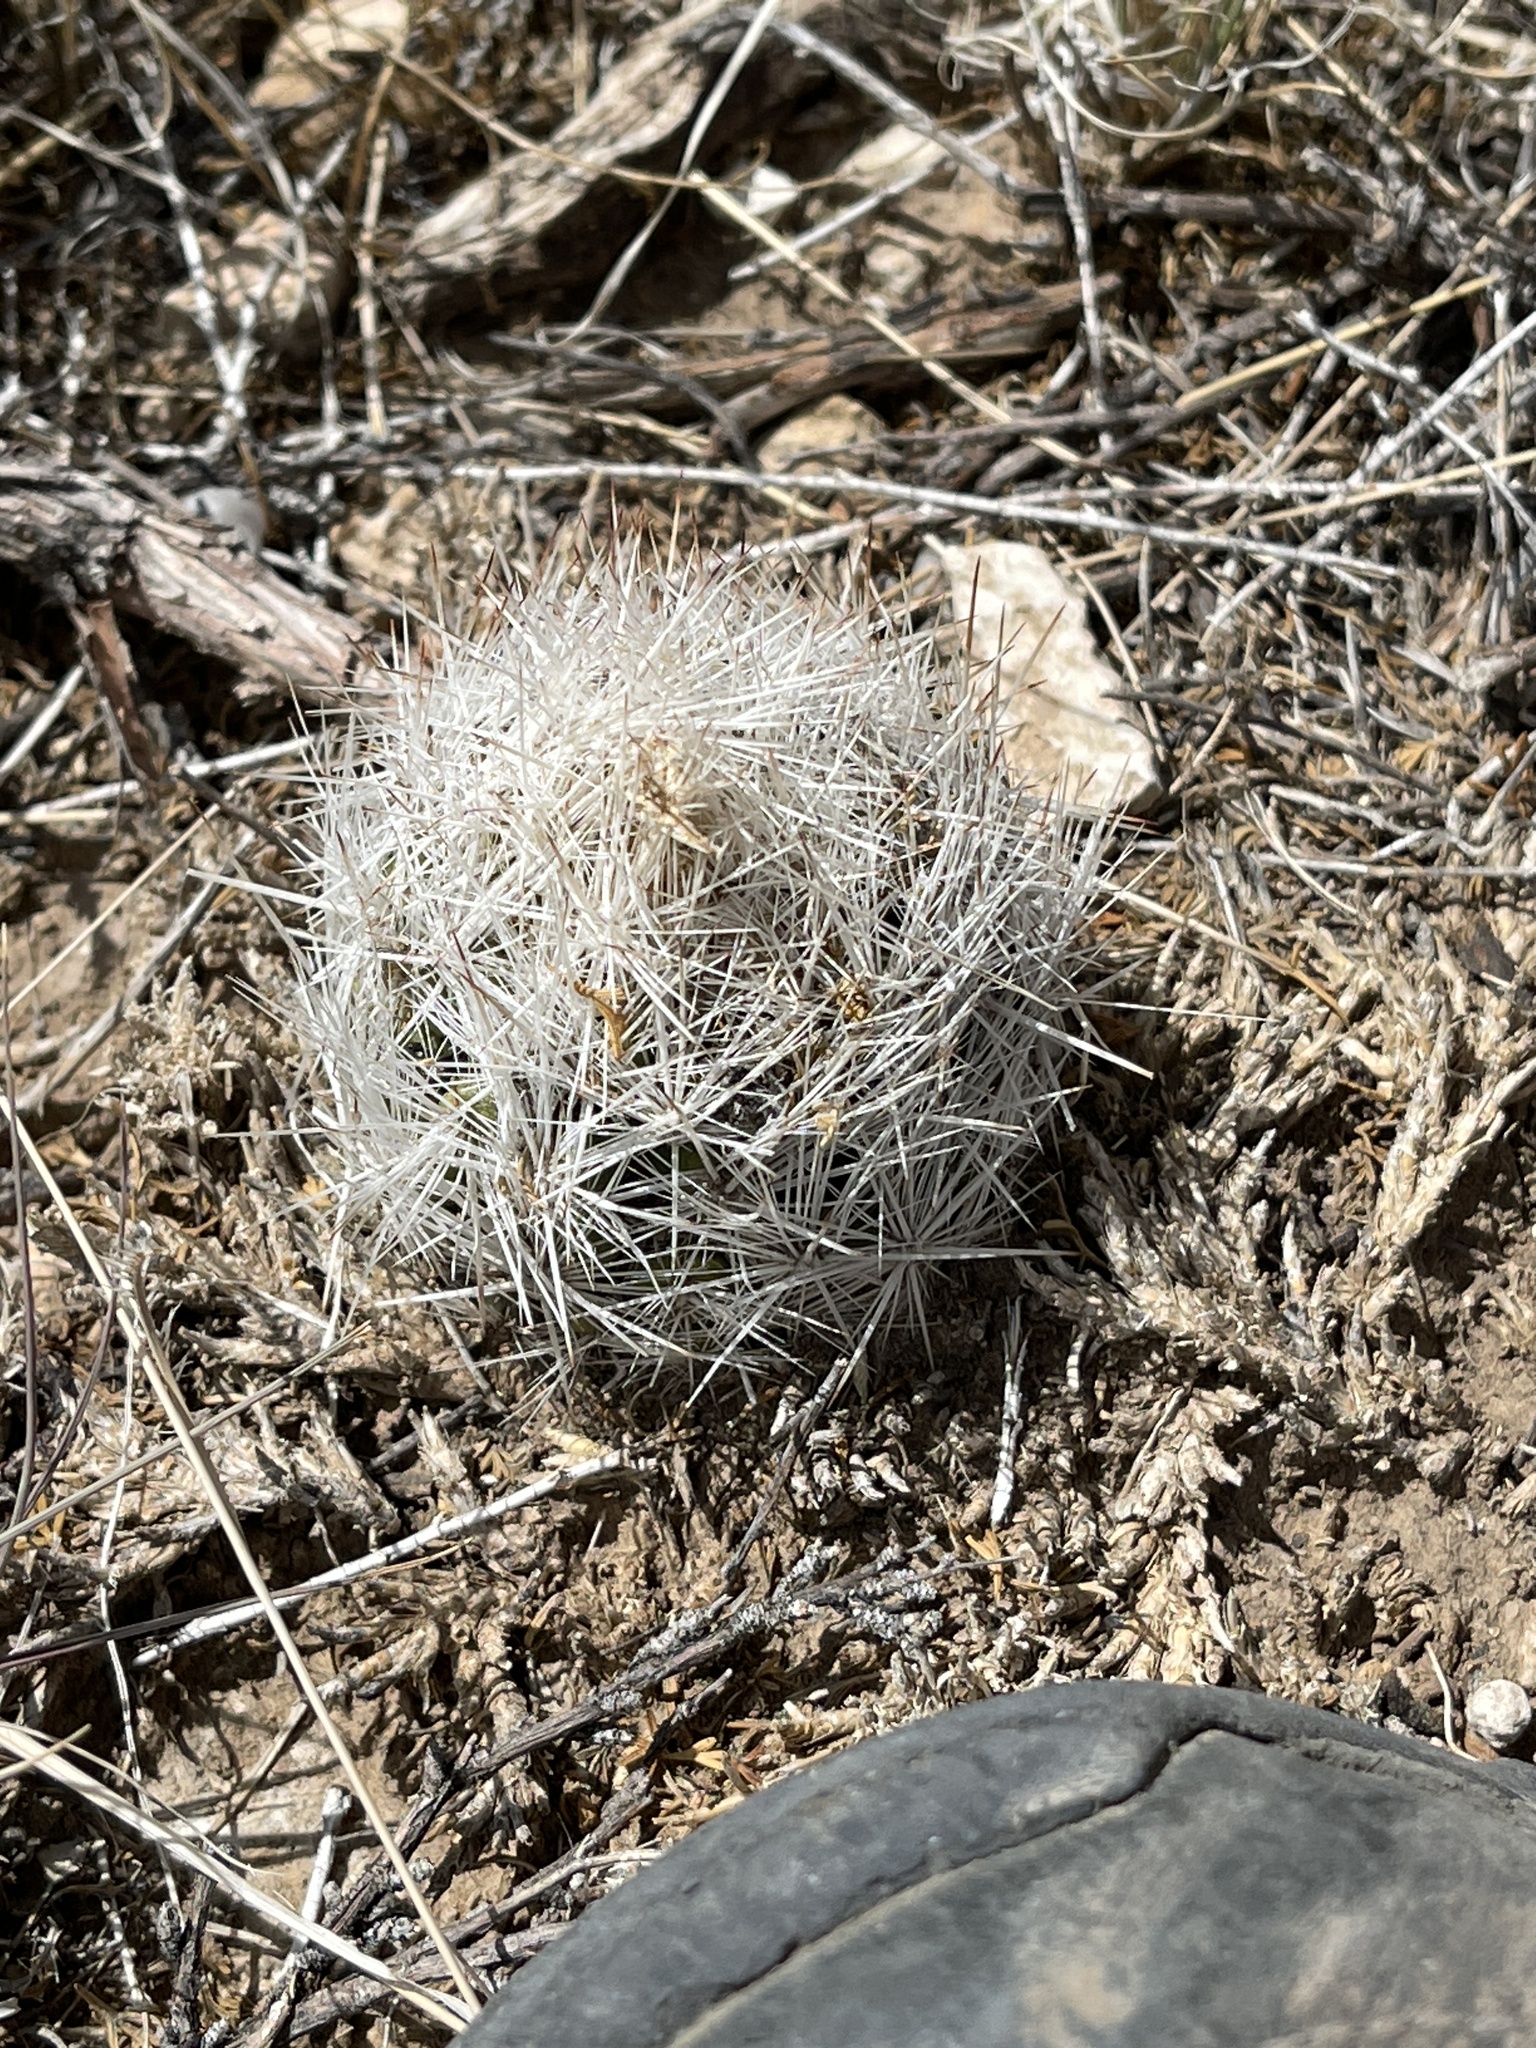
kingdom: Plantae
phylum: Tracheophyta
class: Magnoliopsida
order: Caryophyllales
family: Cactaceae
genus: Pelecyphora
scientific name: Pelecyphora vivipara
